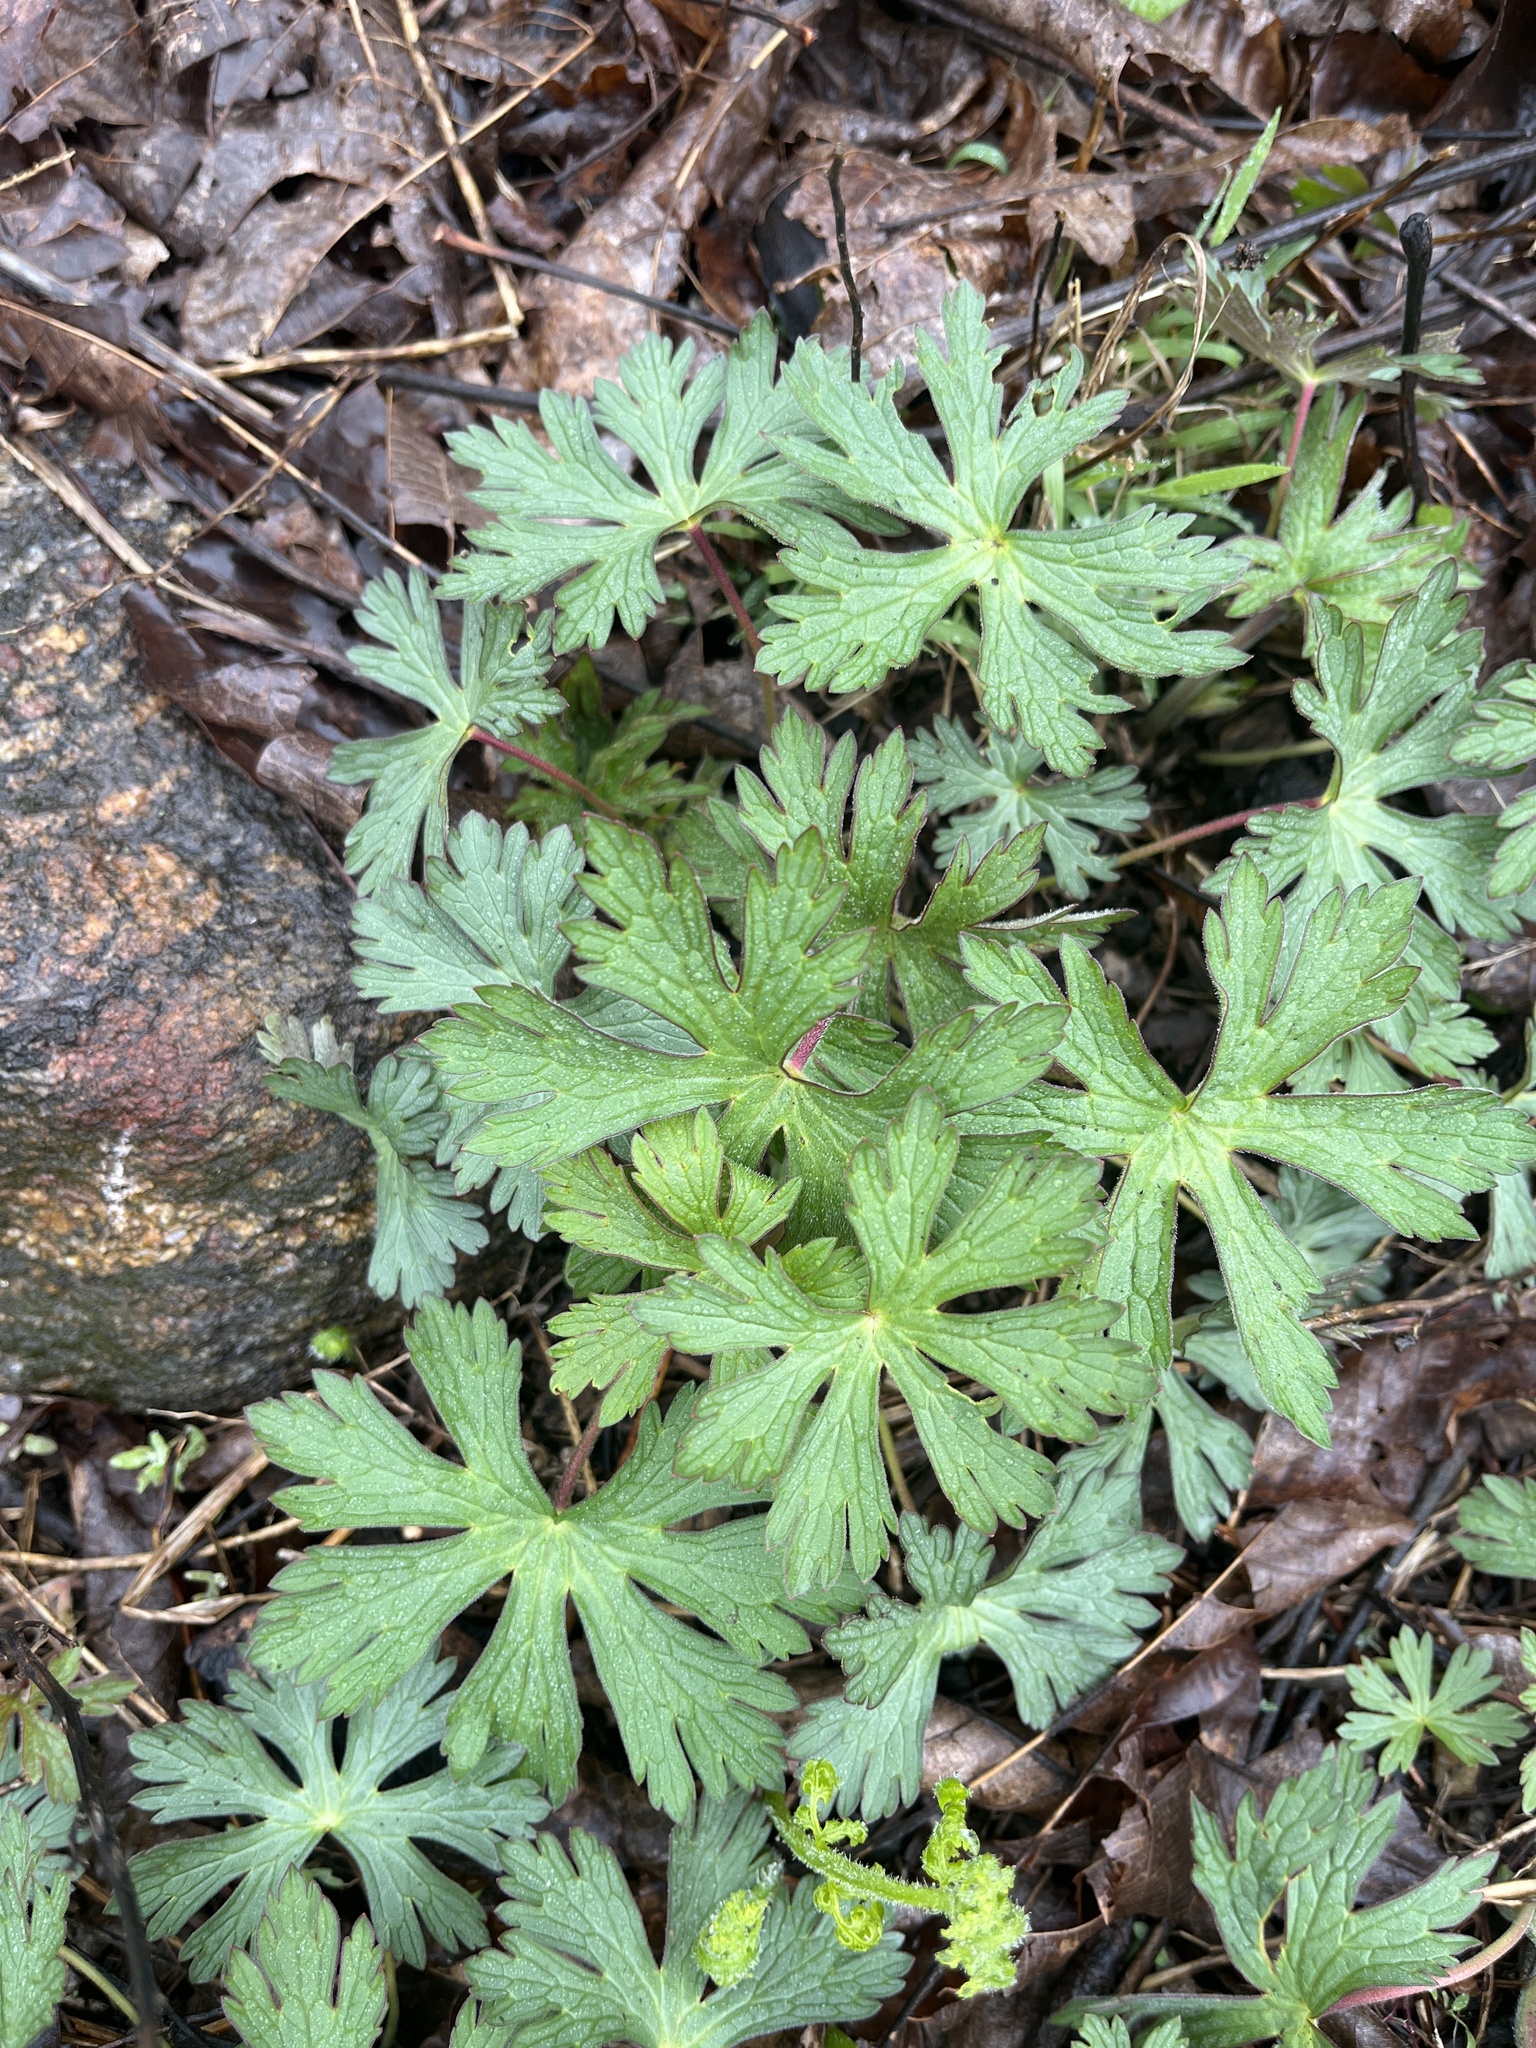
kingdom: Plantae
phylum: Tracheophyta
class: Magnoliopsida
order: Geraniales
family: Geraniaceae
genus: Geranium
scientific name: Geranium maculatum
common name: Spotted geranium
